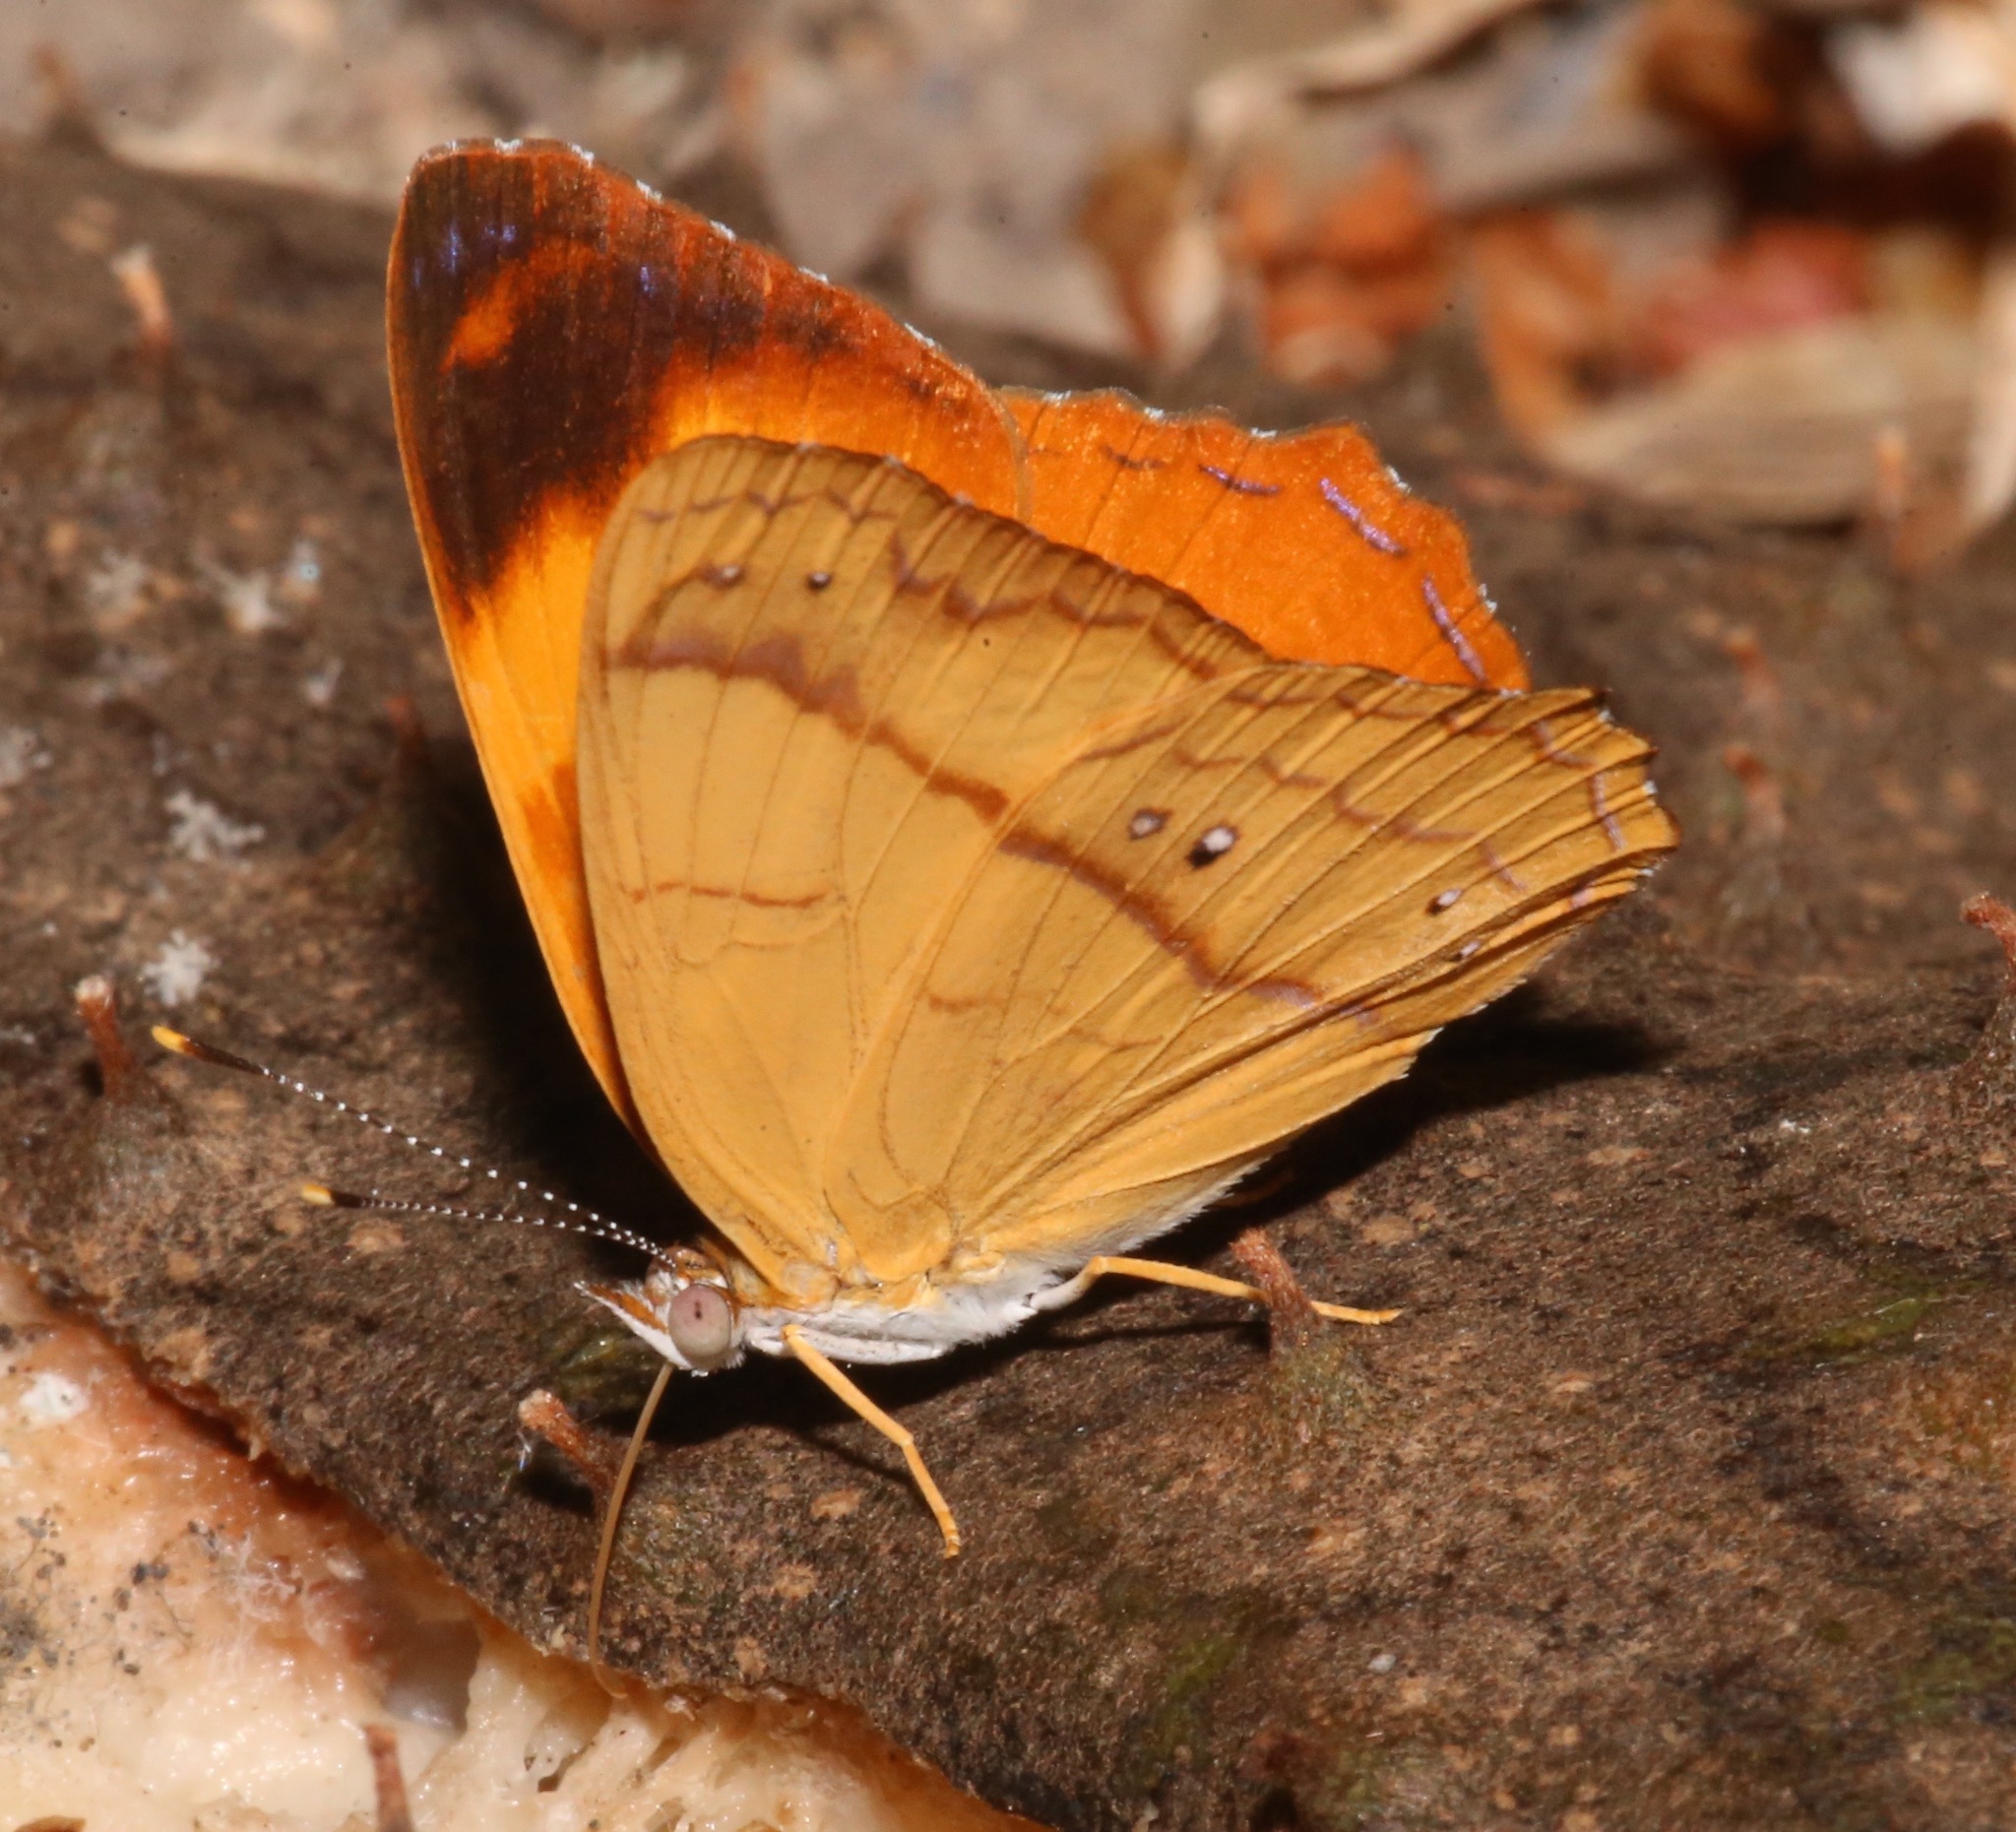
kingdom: Animalia
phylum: Arthropoda
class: Insecta
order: Lepidoptera
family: Nymphalidae
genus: Nica
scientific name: Nica flavilla
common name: Mandarin nica
